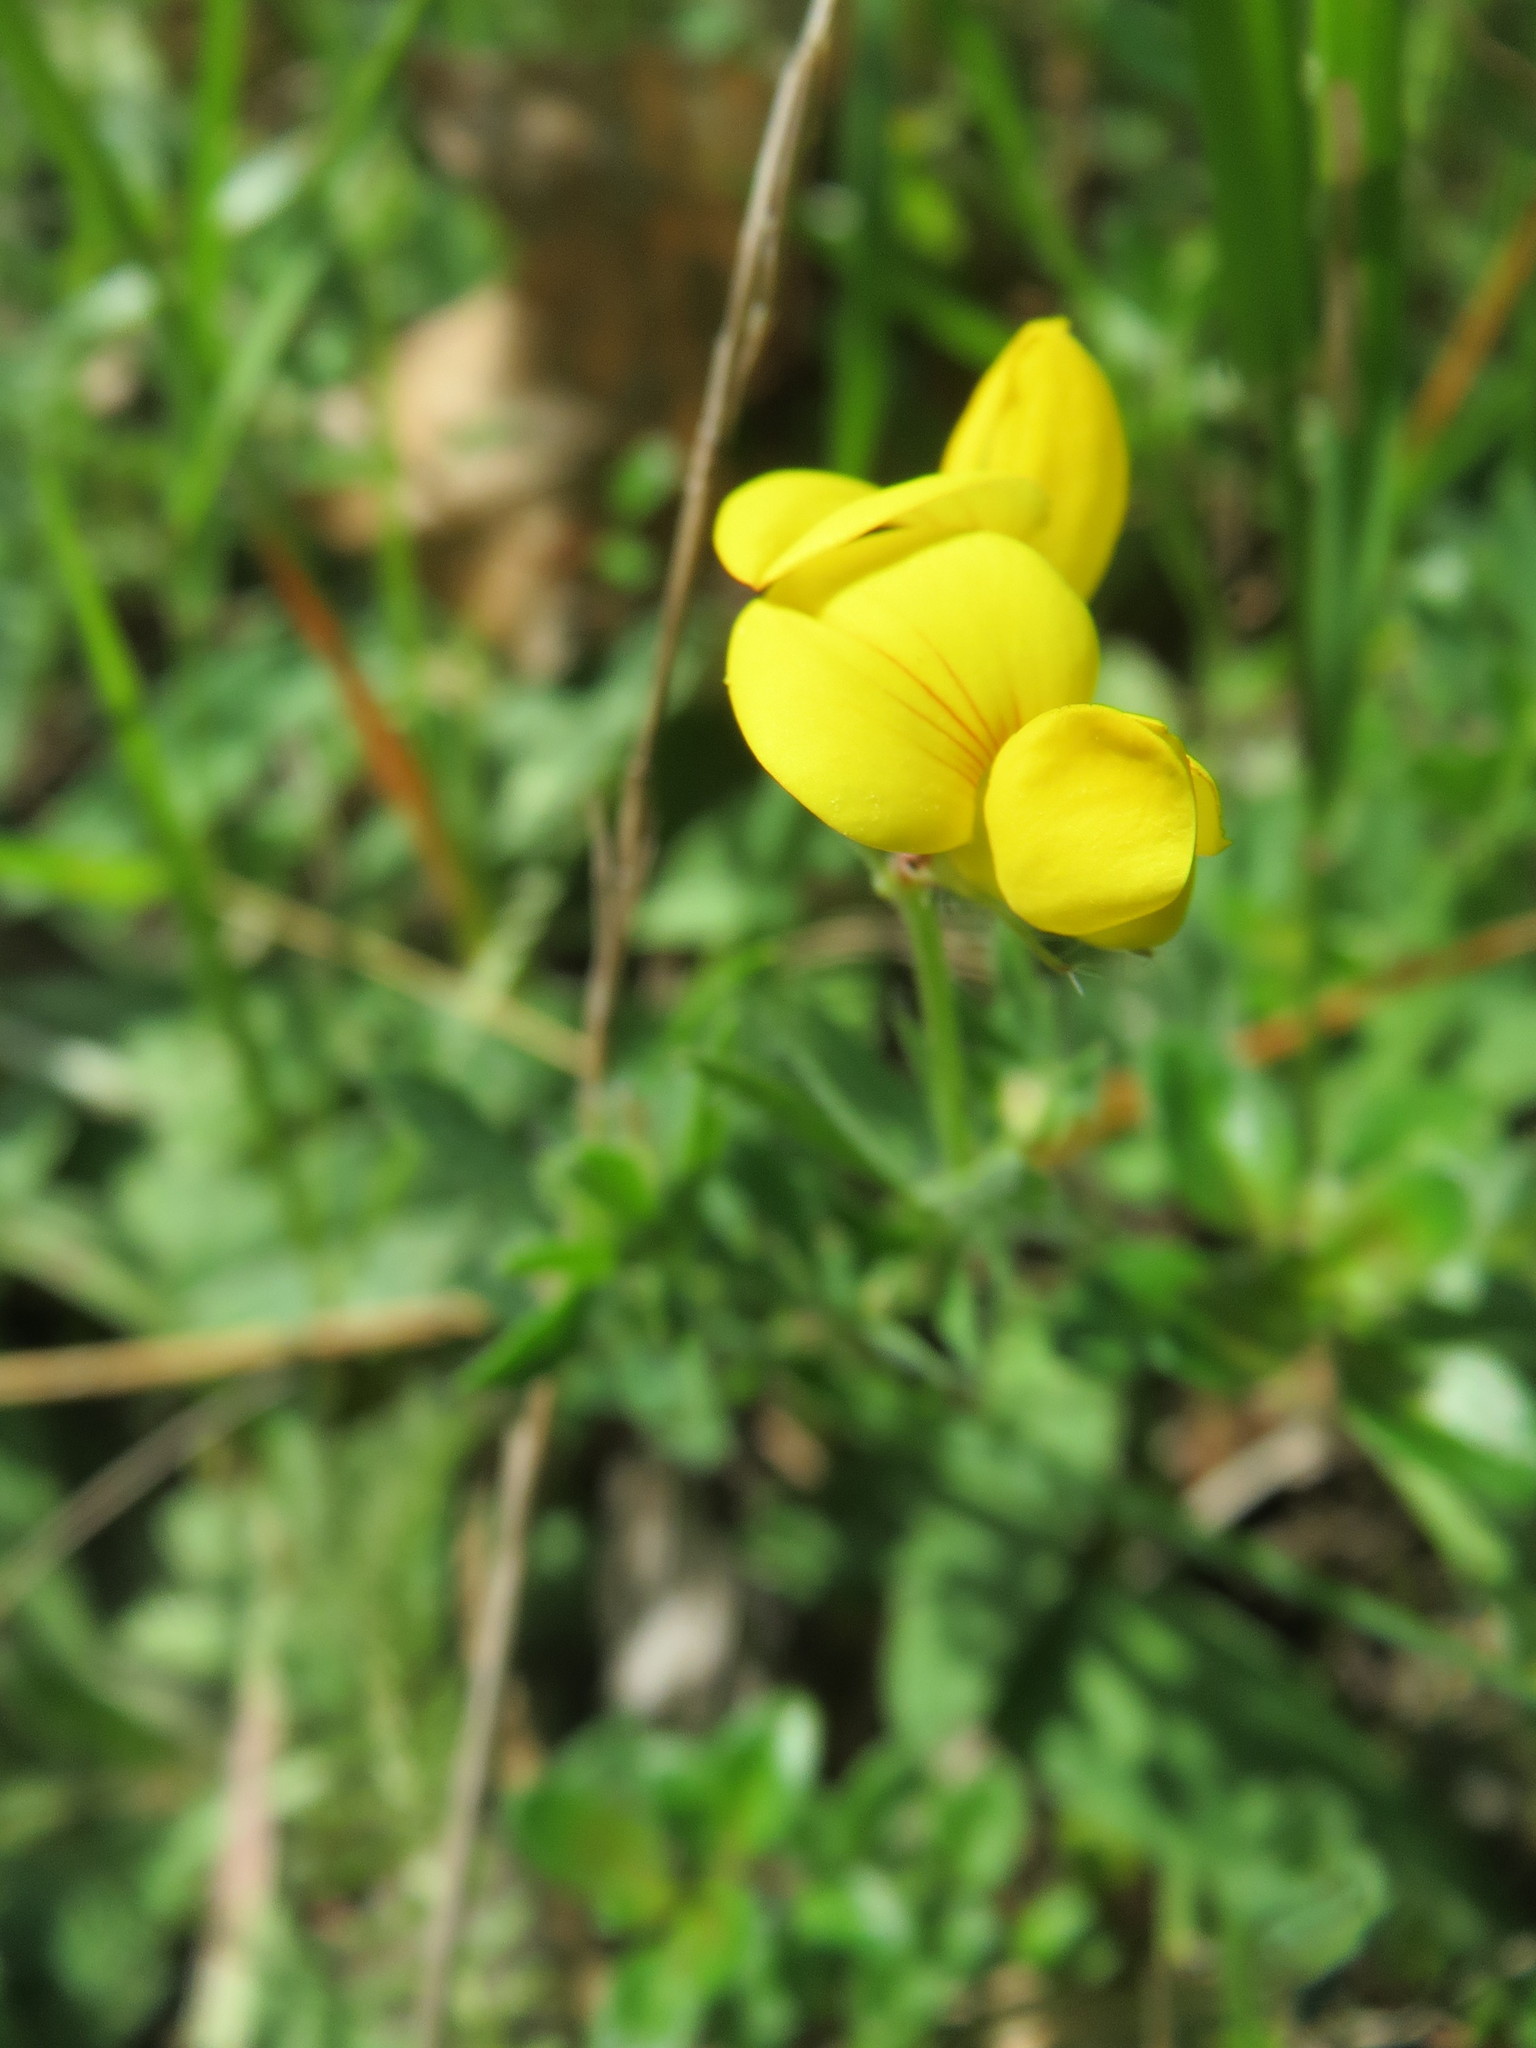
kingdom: Plantae
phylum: Tracheophyta
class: Magnoliopsida
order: Fabales
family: Fabaceae
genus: Lotus
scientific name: Lotus corniculatus
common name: Common bird's-foot-trefoil
